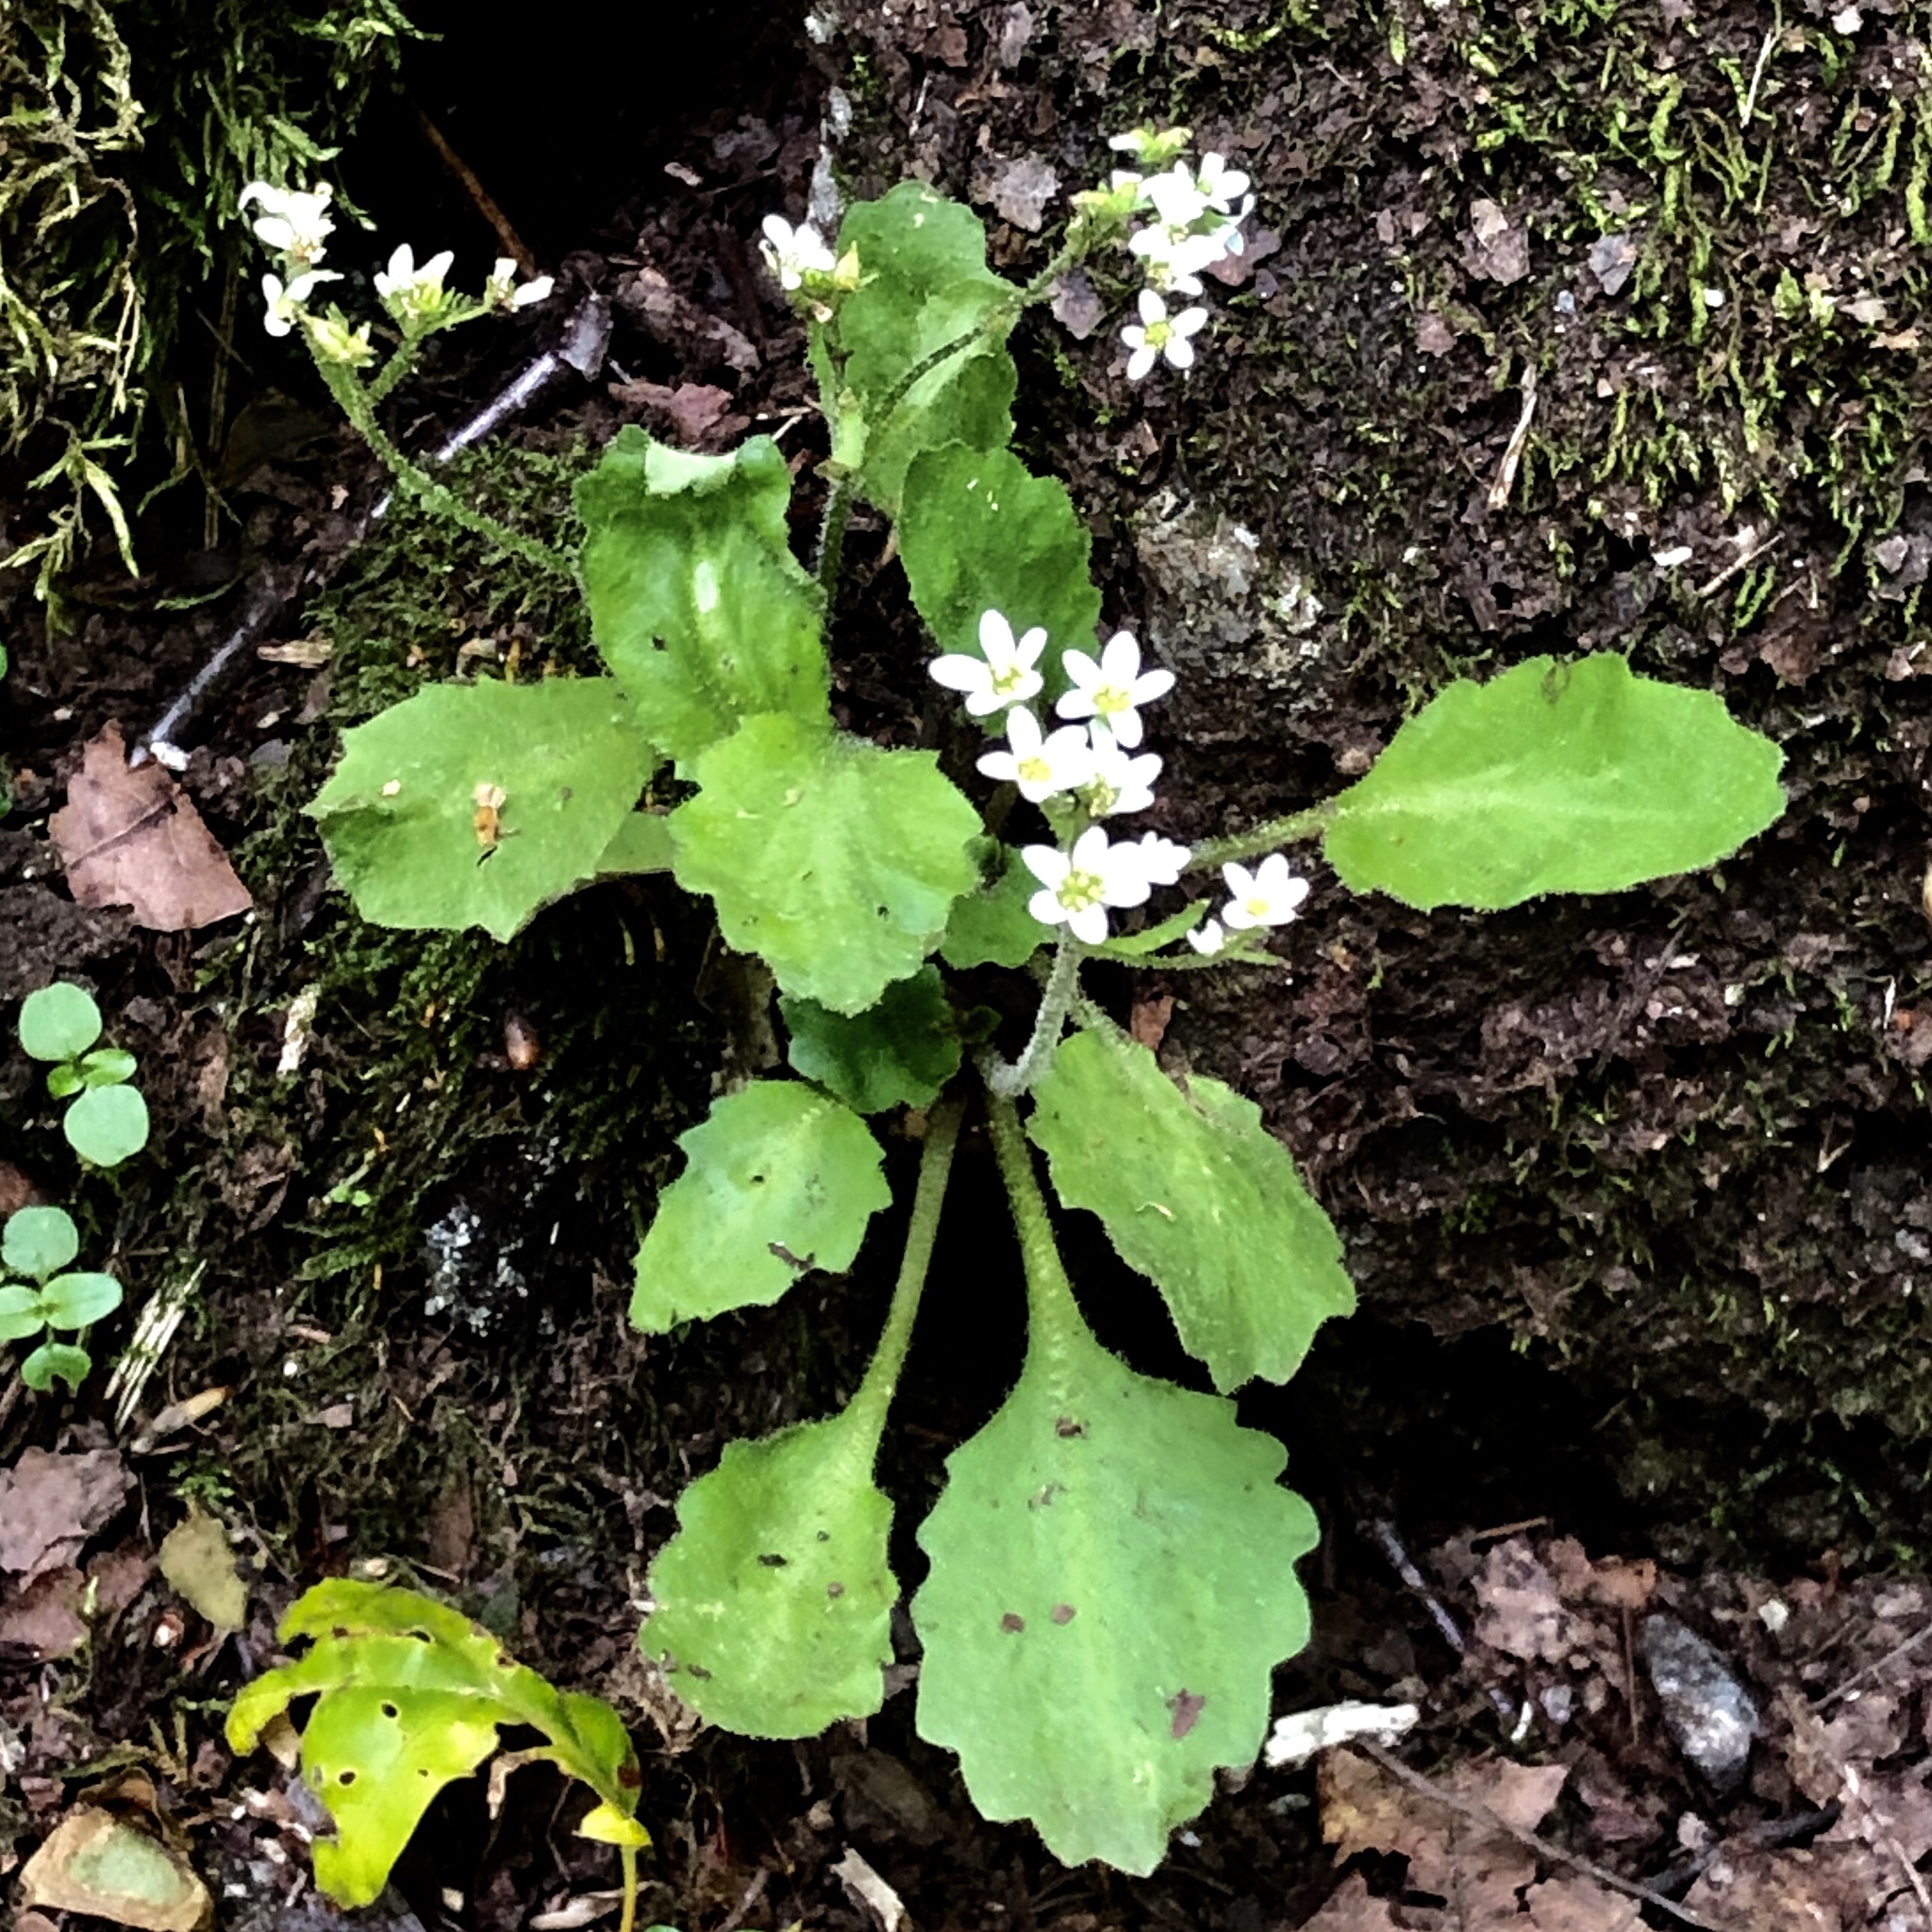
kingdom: Plantae
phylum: Tracheophyta
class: Magnoliopsida
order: Saxifragales
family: Saxifragaceae
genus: Micranthes
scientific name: Micranthes virginiensis
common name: Early saxifrage
